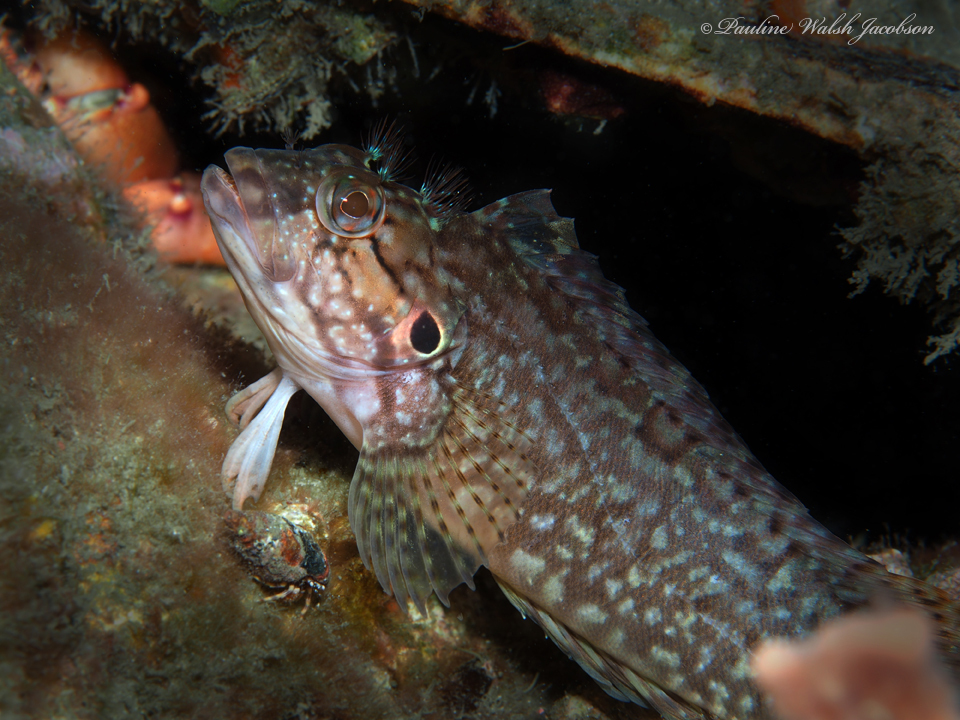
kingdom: Animalia
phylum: Chordata
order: Perciformes
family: Labrisomidae
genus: Labrisomus
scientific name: Labrisomus conditus
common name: Masquerader hairy blenny
